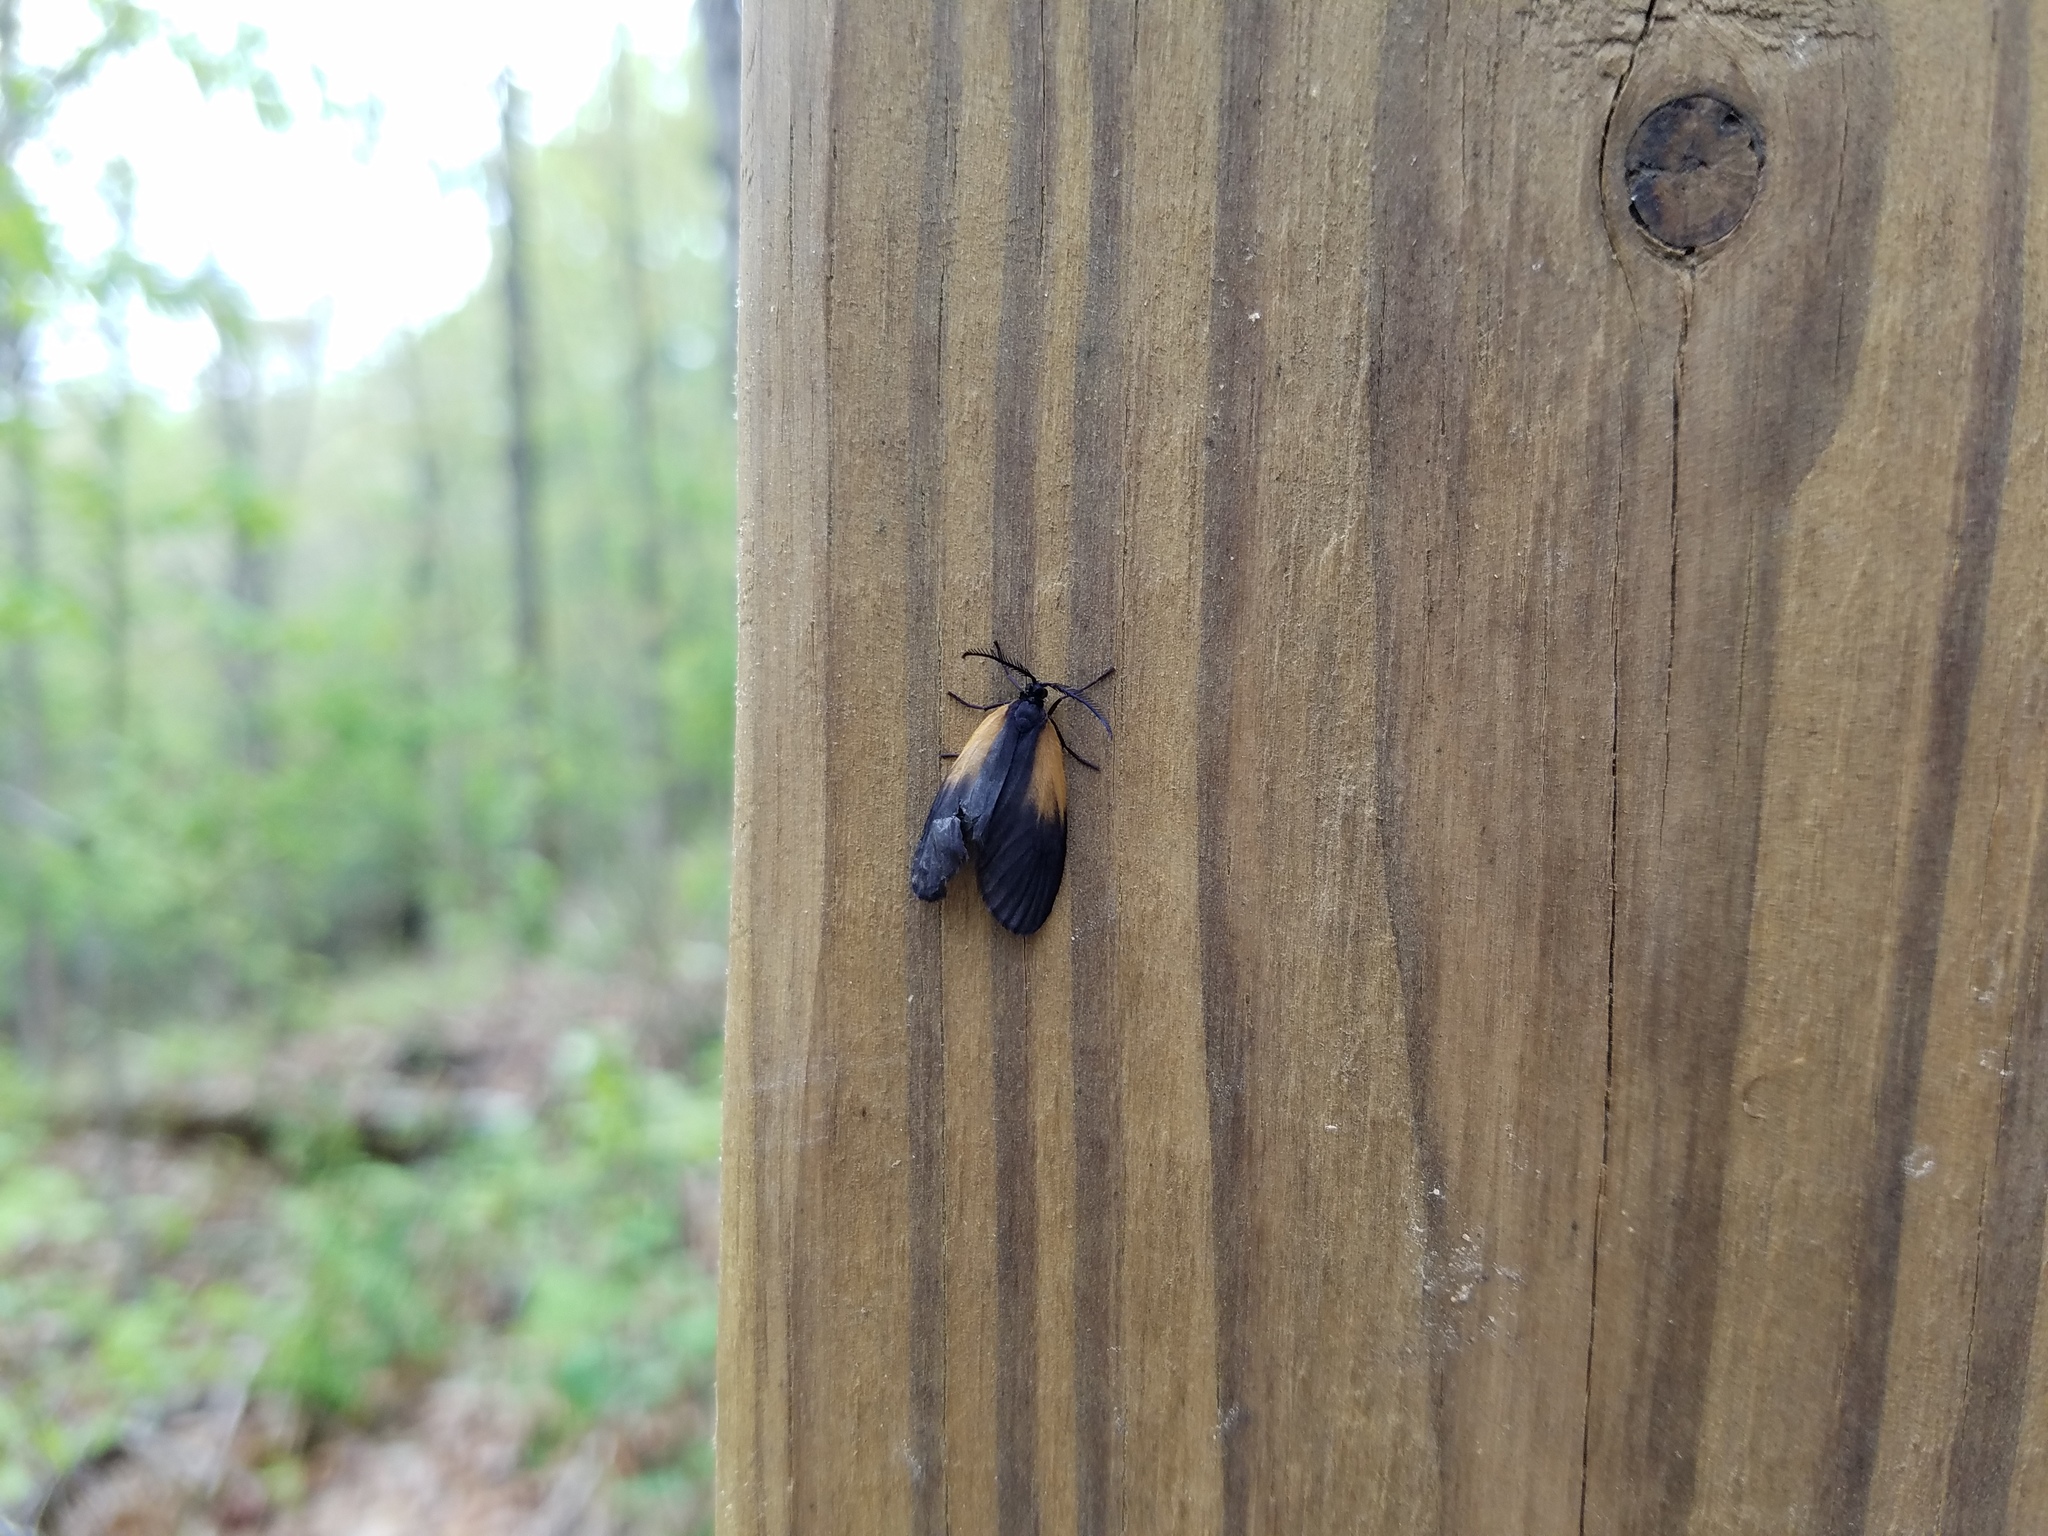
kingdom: Animalia
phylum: Arthropoda
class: Insecta
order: Lepidoptera
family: Zygaenidae
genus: Malthaca
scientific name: Malthaca dimidiata
